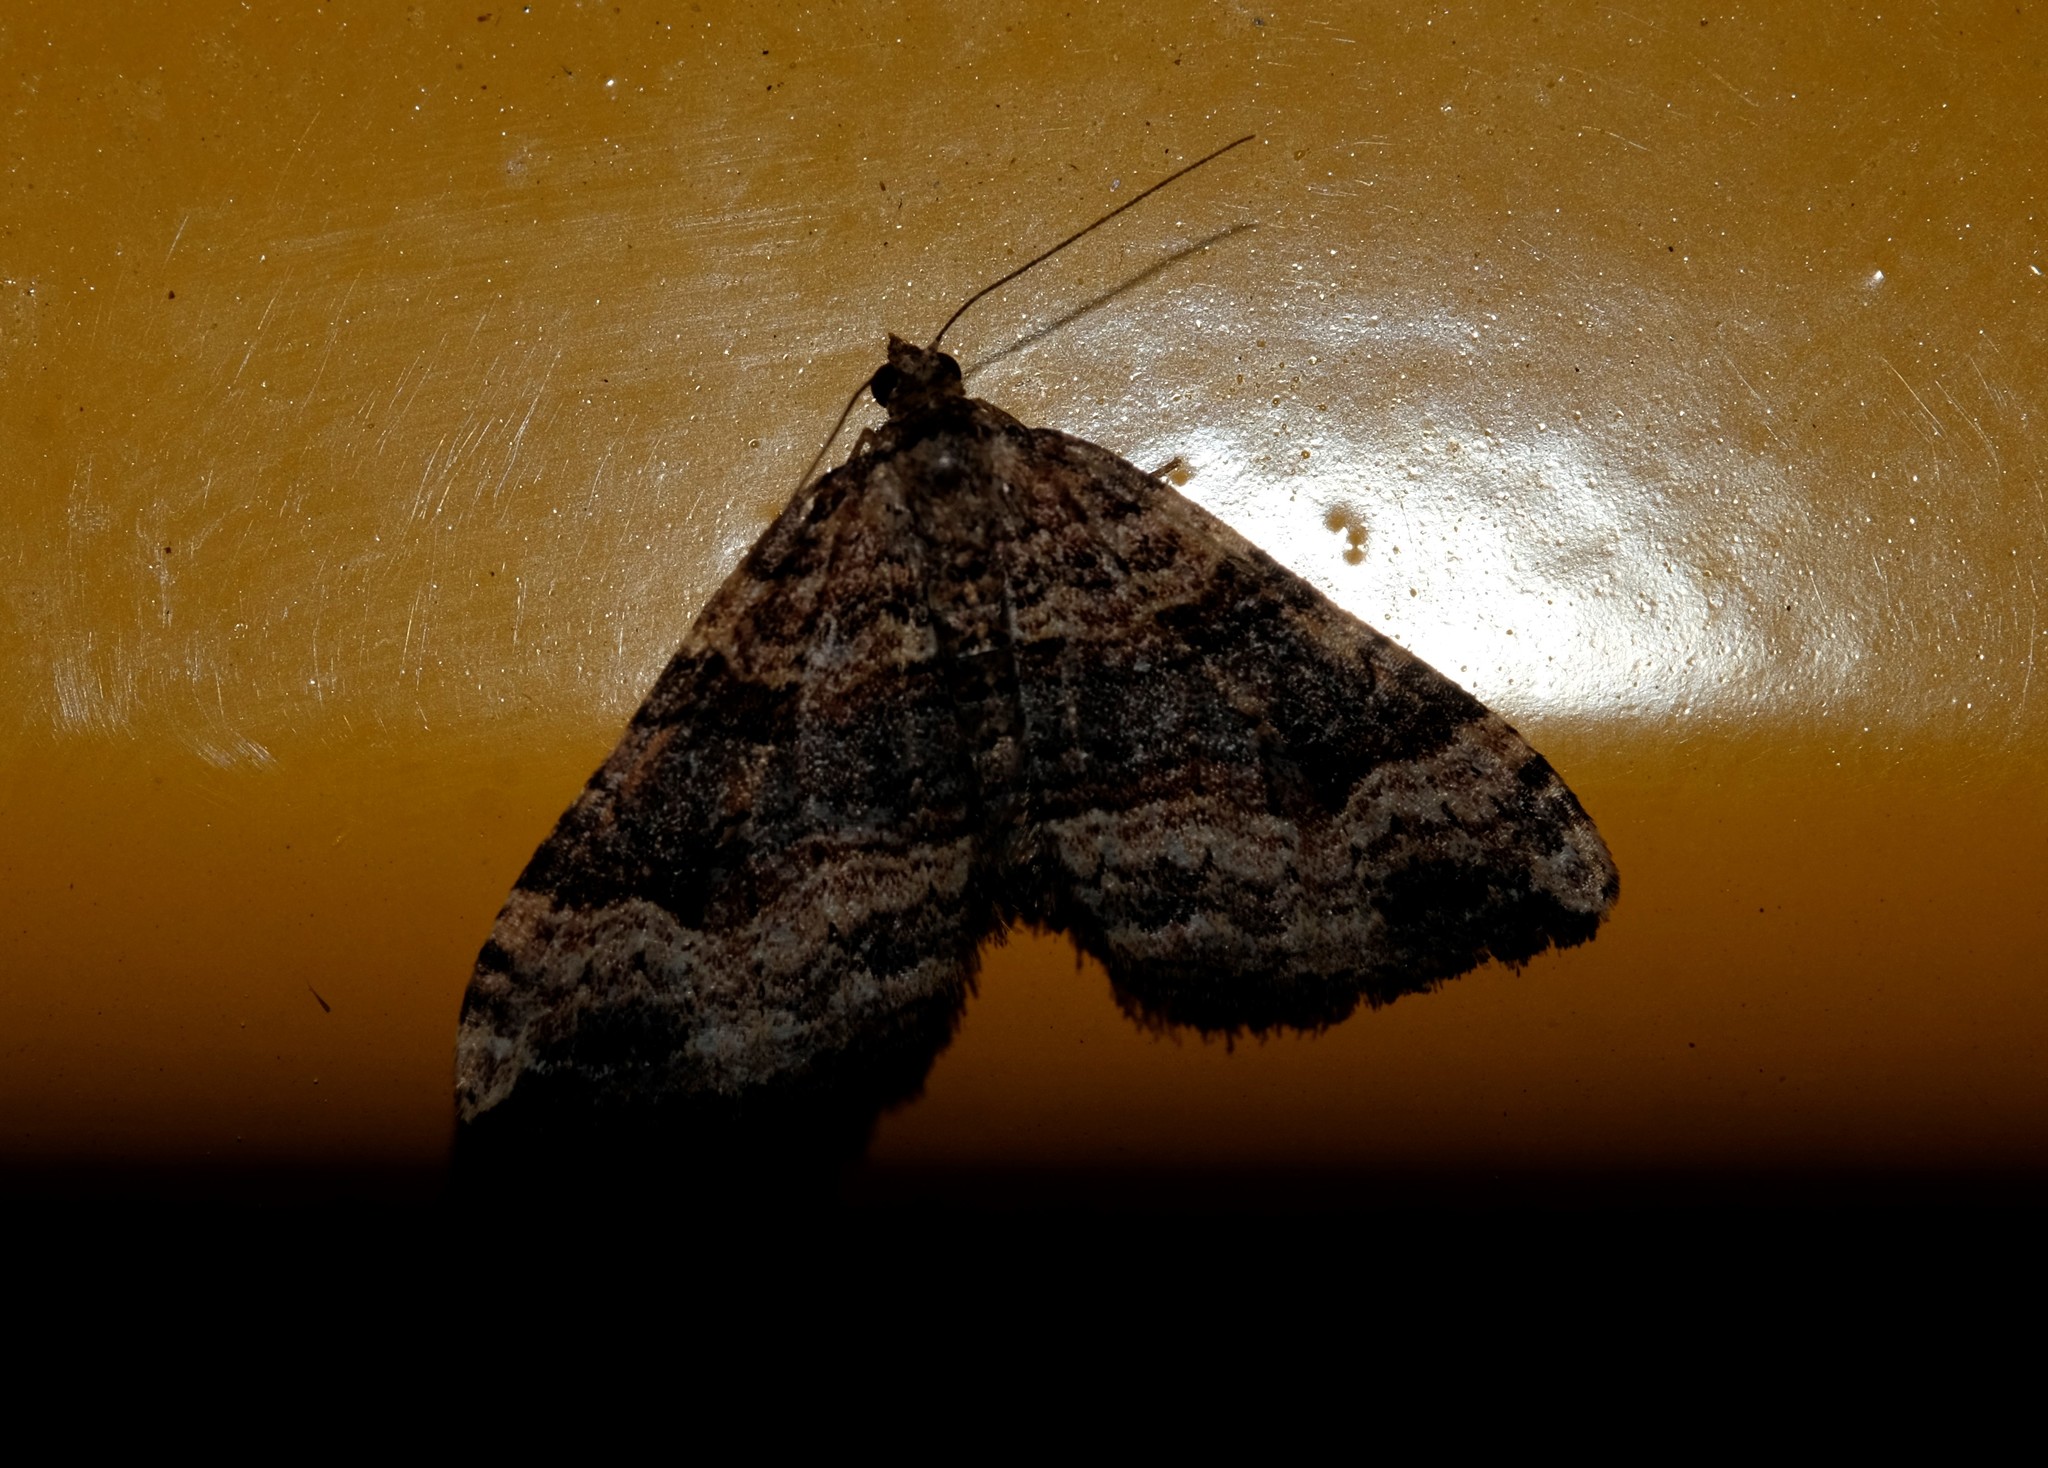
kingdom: Animalia
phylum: Arthropoda
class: Insecta
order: Lepidoptera
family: Geometridae
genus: Epyaxa
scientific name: Epyaxa subidaria
